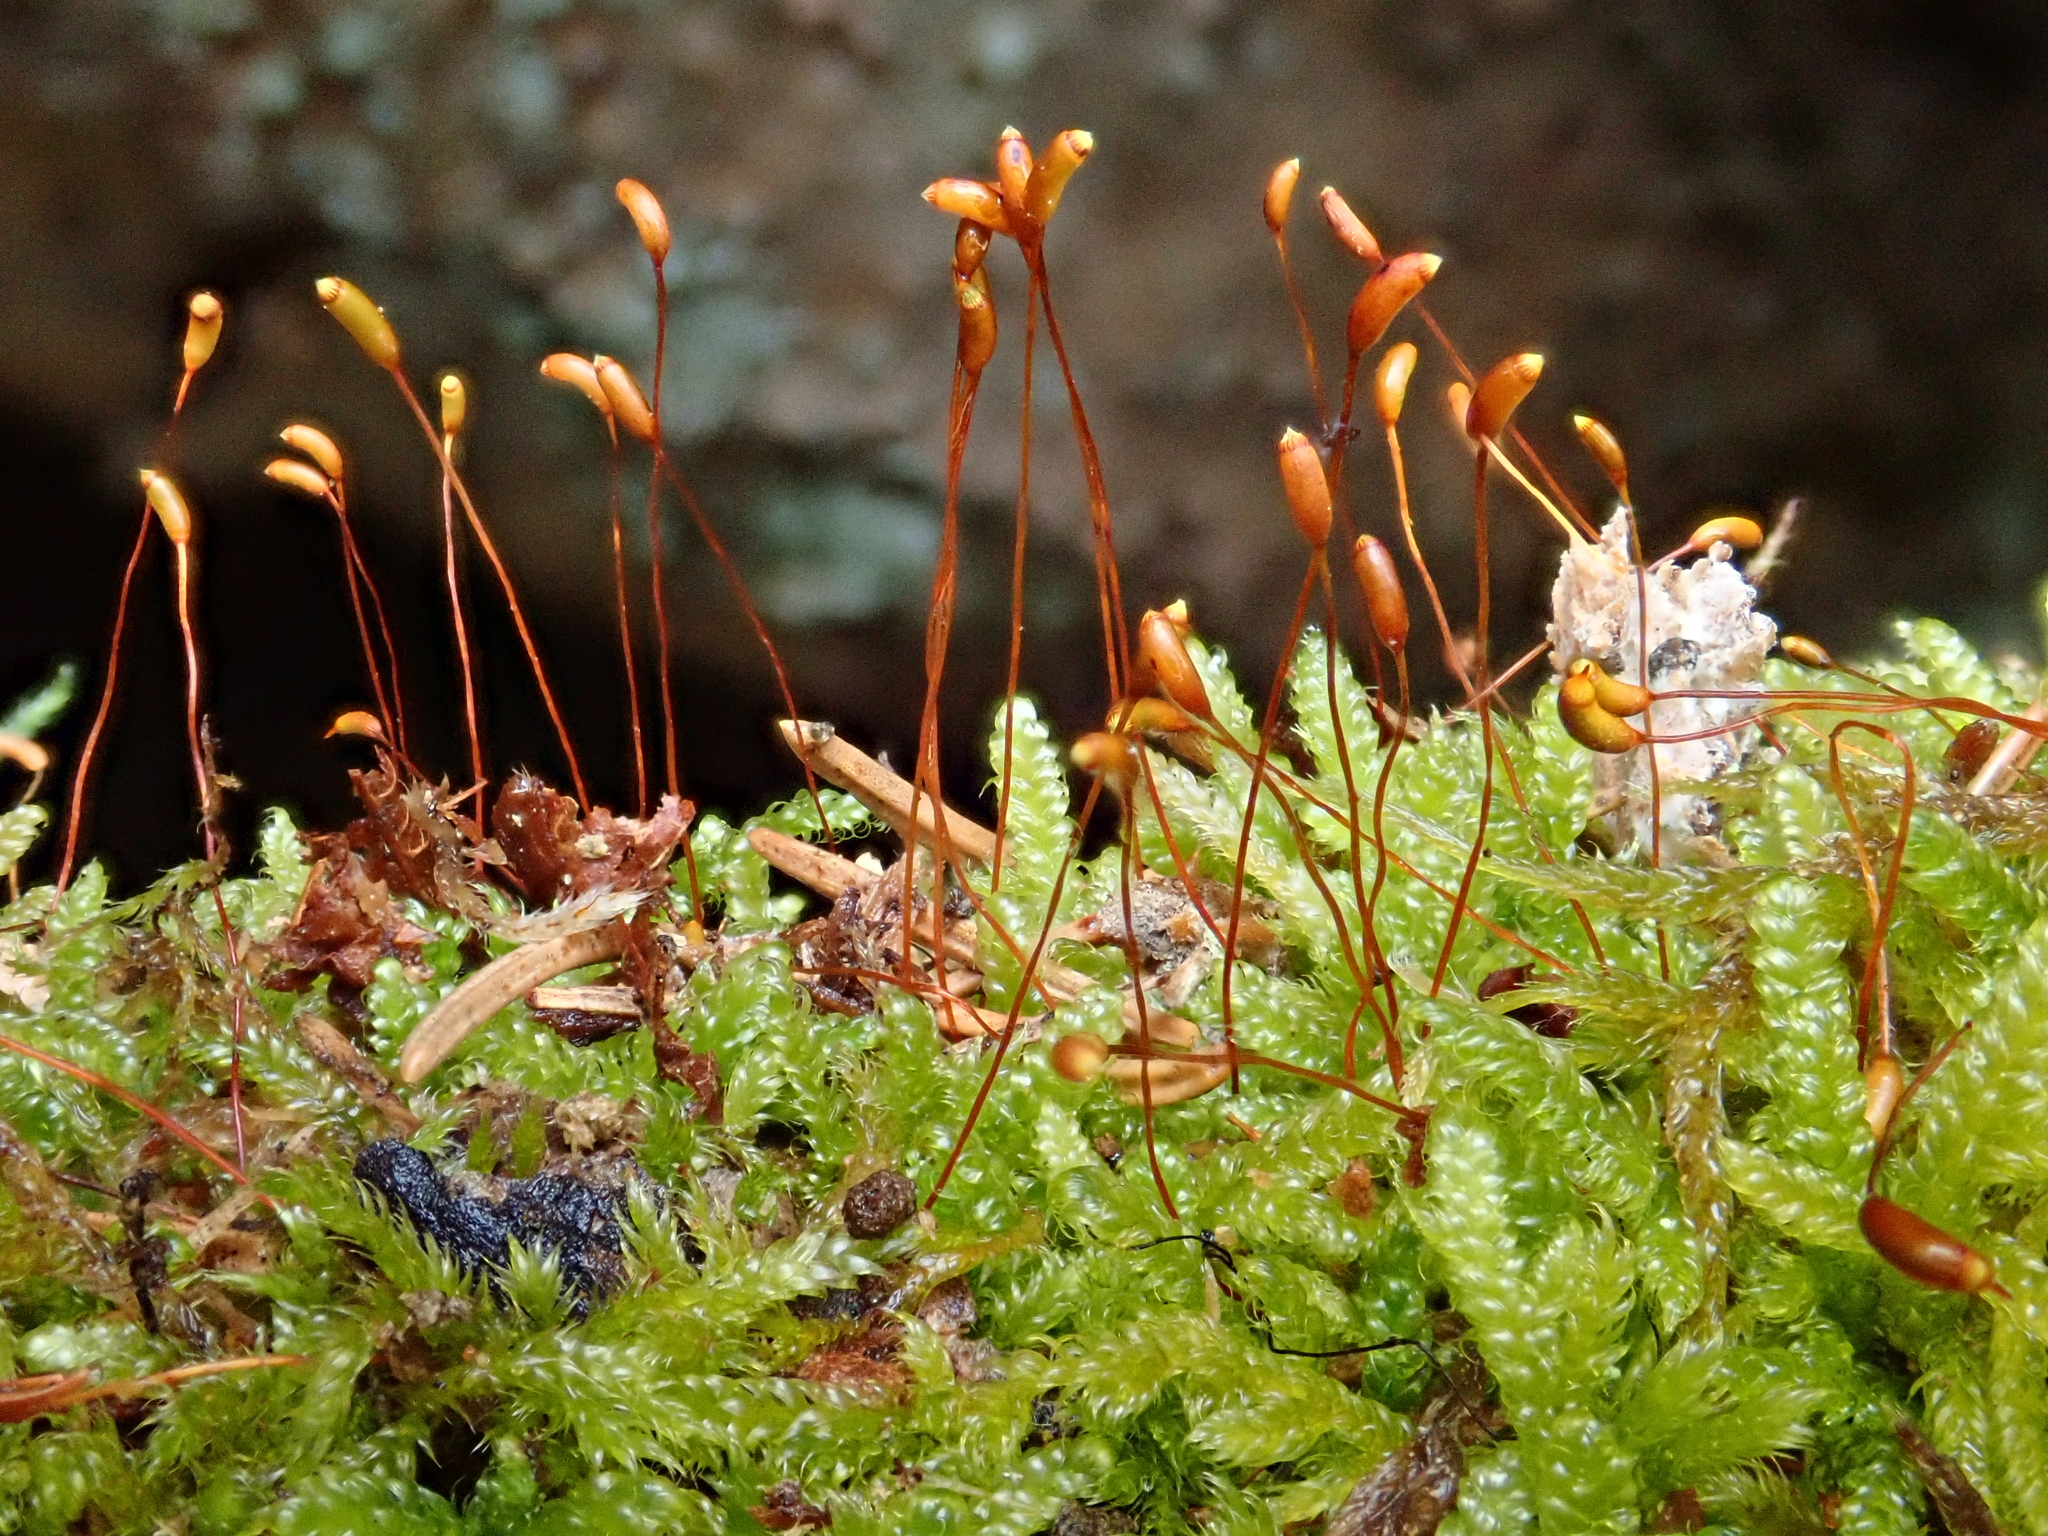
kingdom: Plantae
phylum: Bryophyta
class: Bryopsida
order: Hypnales
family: Hypnaceae
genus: Hypnum
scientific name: Hypnum cupressiforme
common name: Cypress-leaved plait-moss
